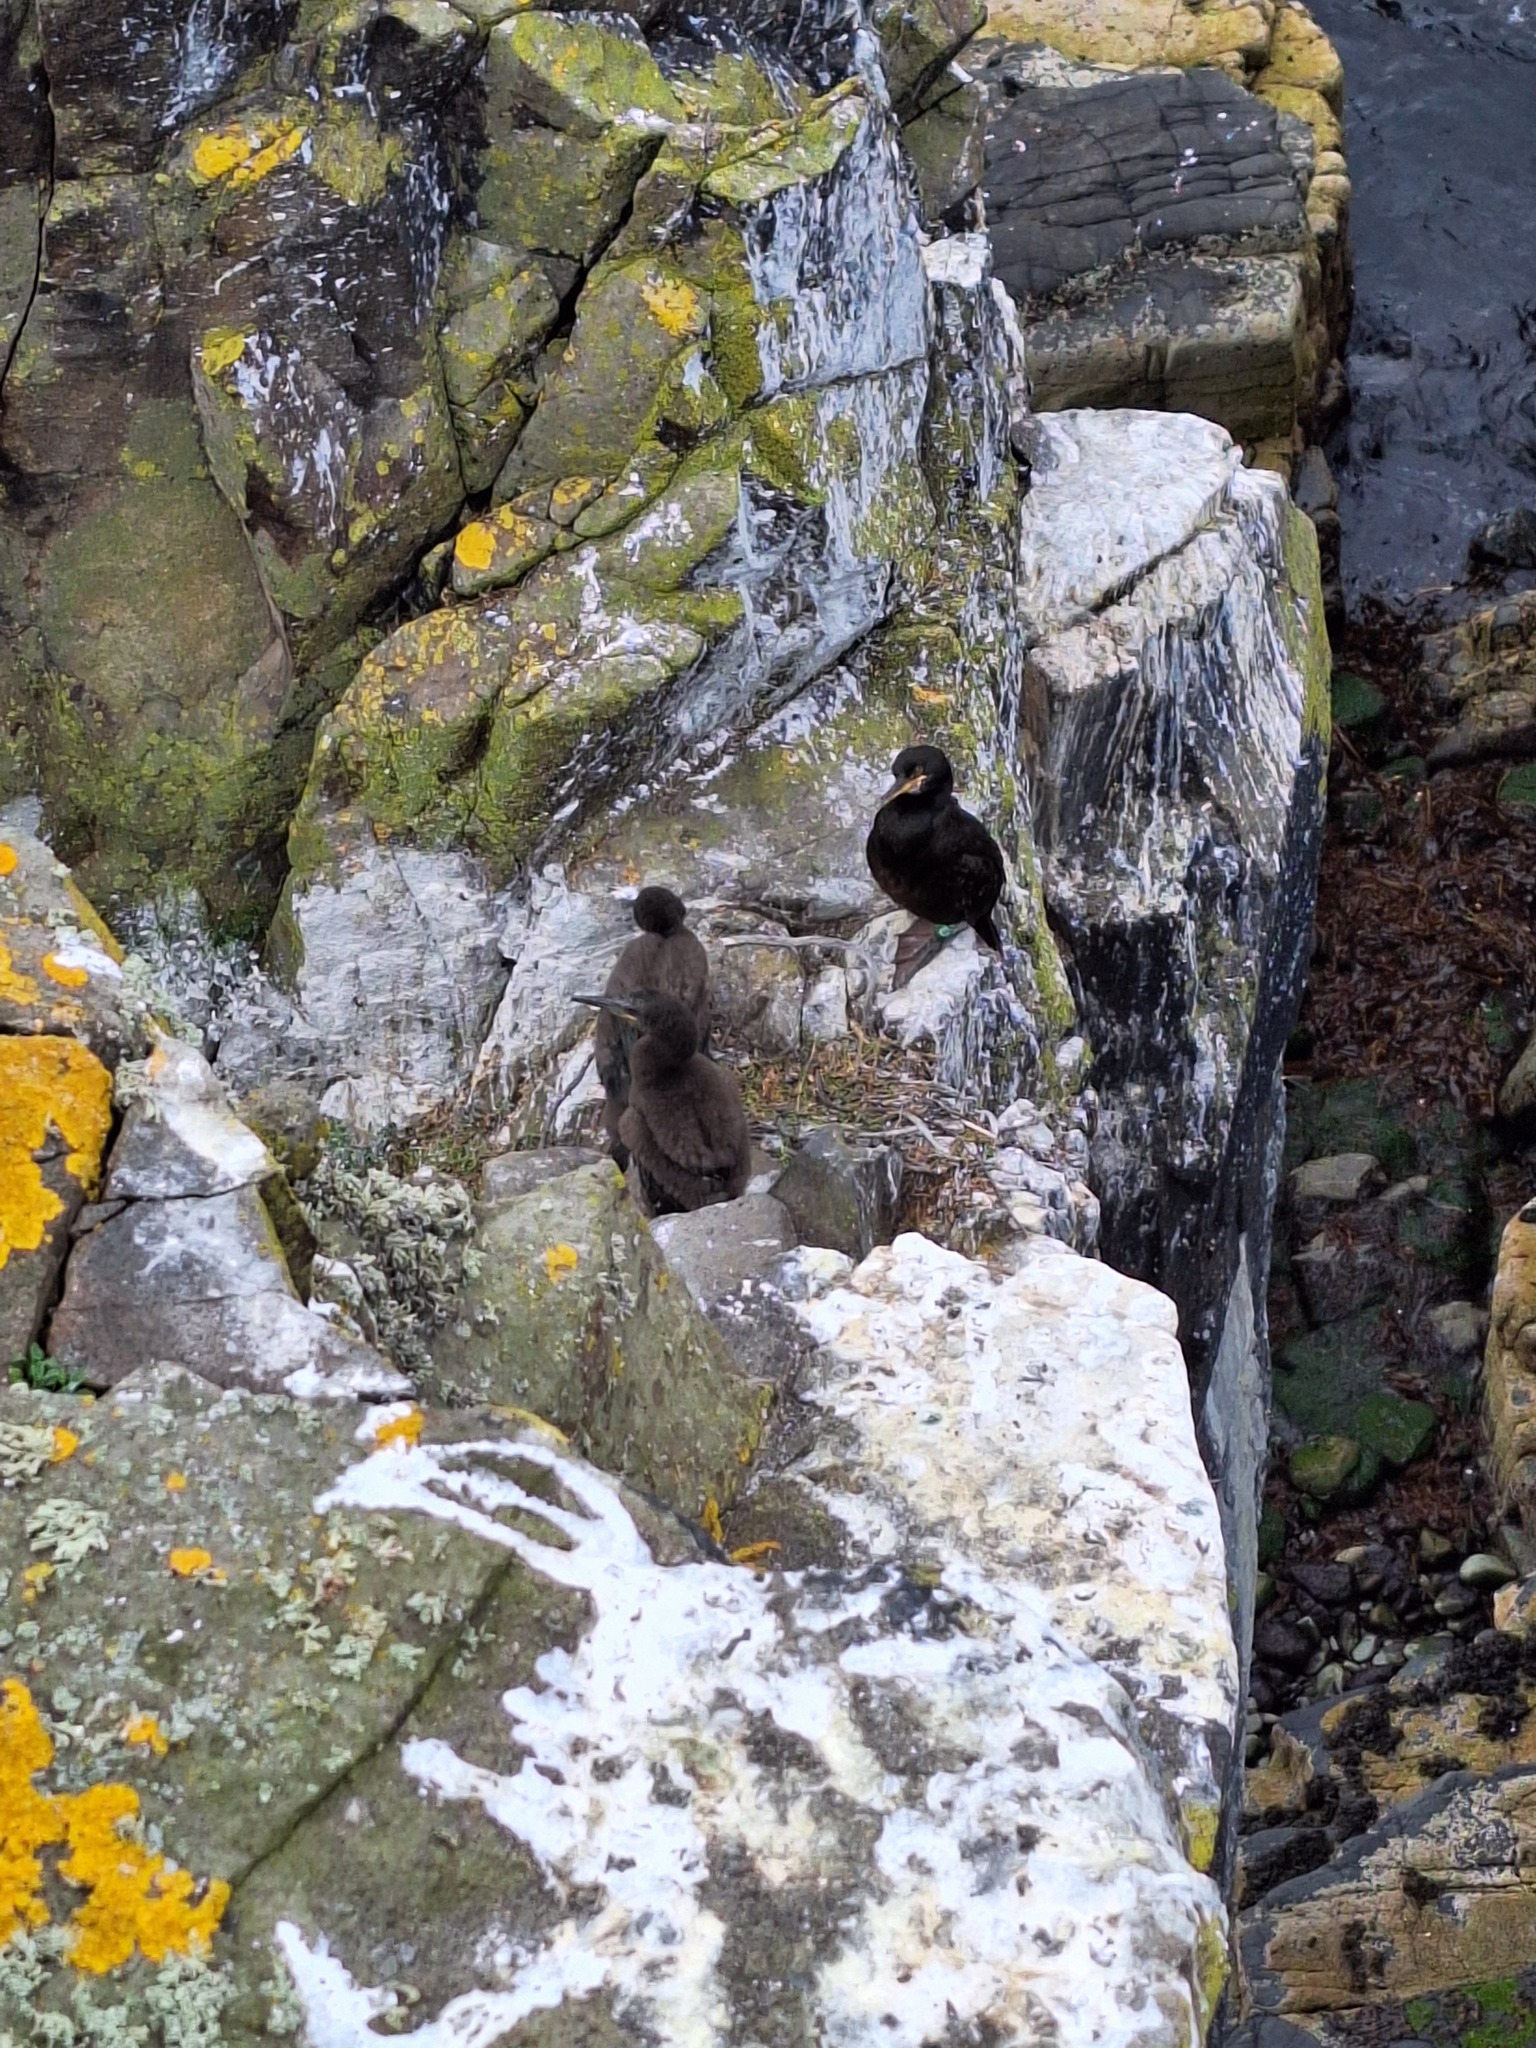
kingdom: Animalia
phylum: Chordata
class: Aves
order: Suliformes
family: Phalacrocoracidae
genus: Phalacrocorax
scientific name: Phalacrocorax aristotelis
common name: European shag
